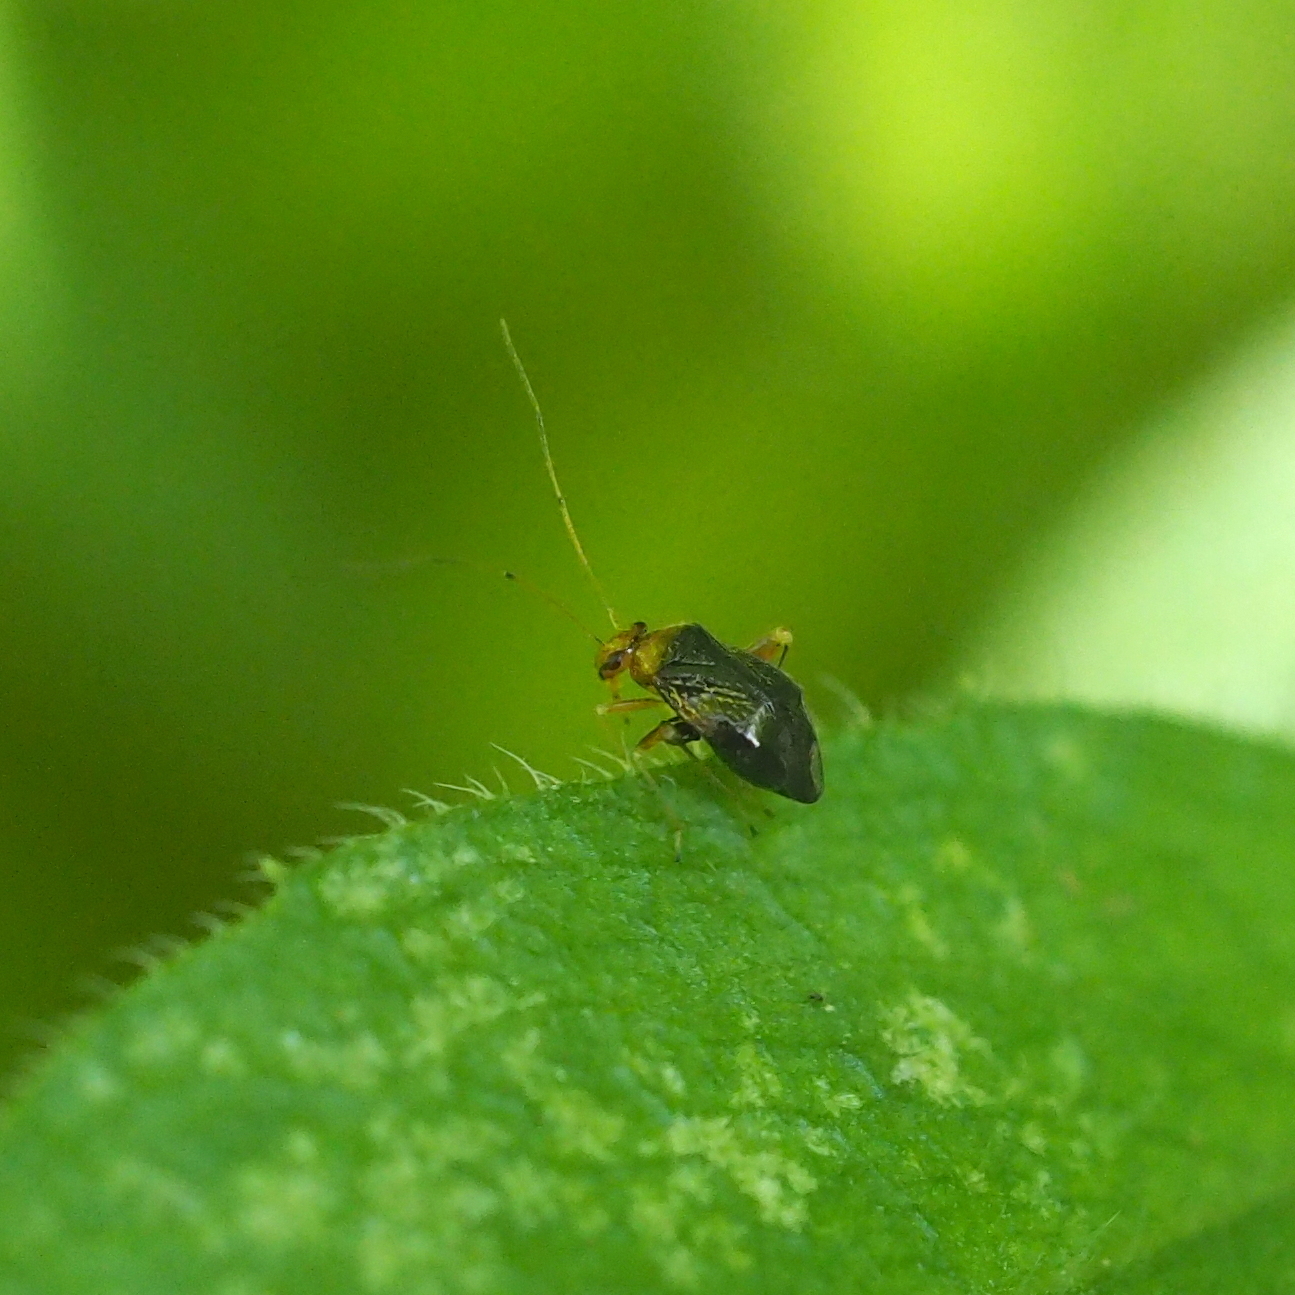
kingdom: Animalia
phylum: Arthropoda
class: Insecta
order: Hemiptera
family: Miridae
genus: Halticus
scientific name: Halticus luteicollis
